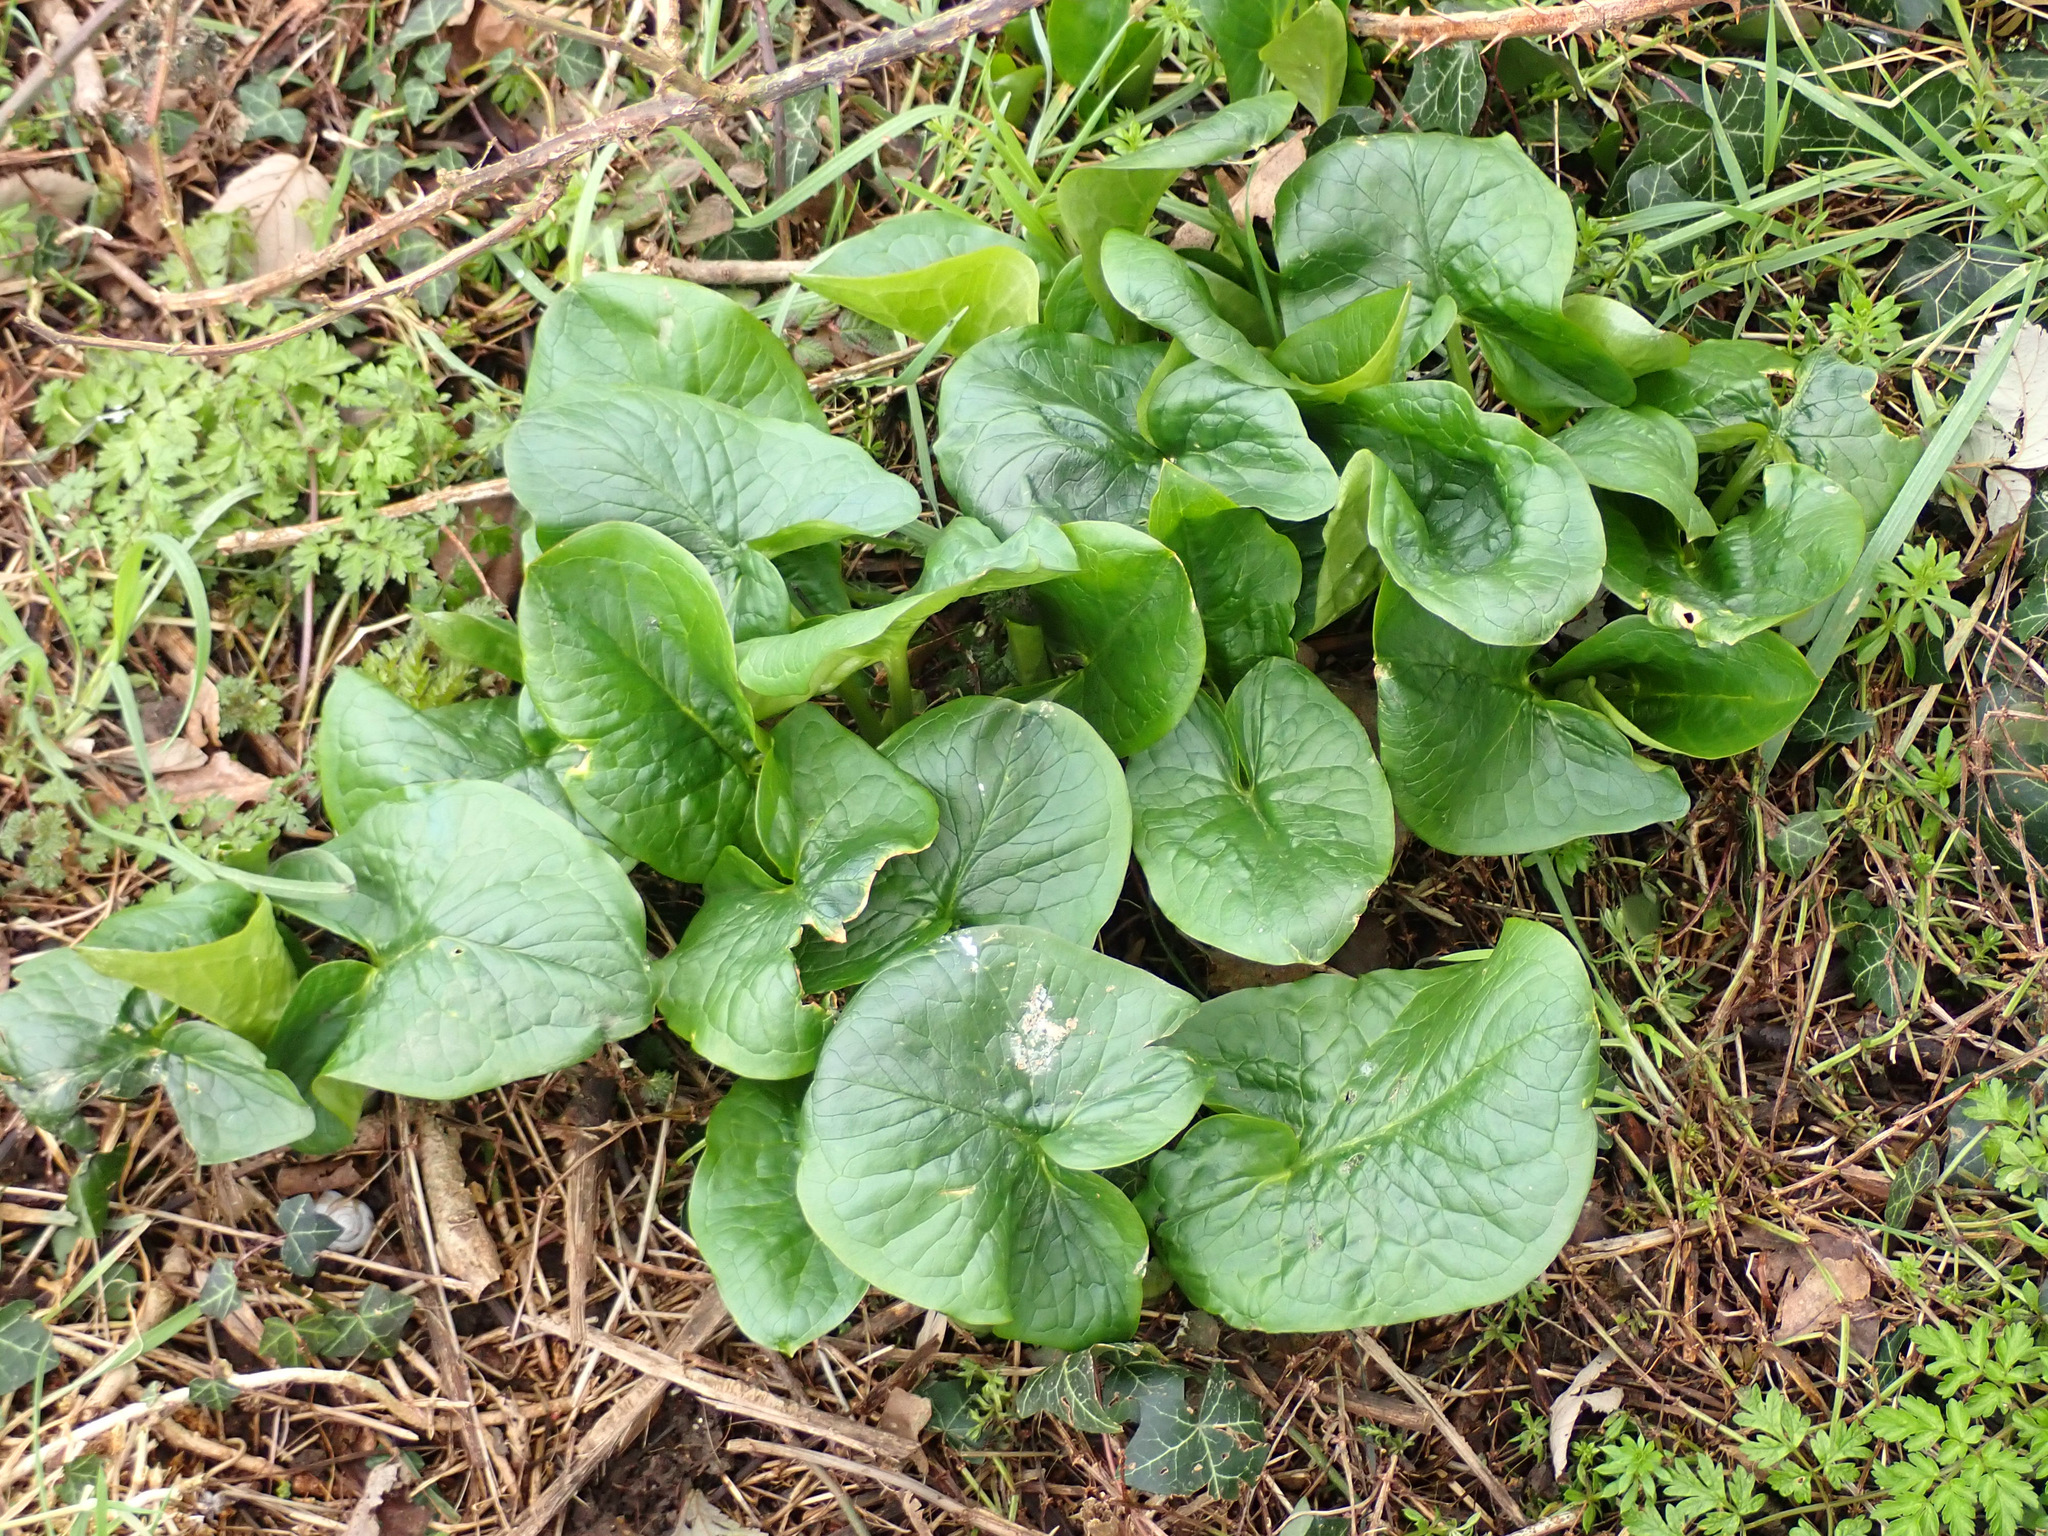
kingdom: Plantae
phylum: Tracheophyta
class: Liliopsida
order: Alismatales
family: Araceae
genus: Arum
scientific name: Arum maculatum
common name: Lords-and-ladies
